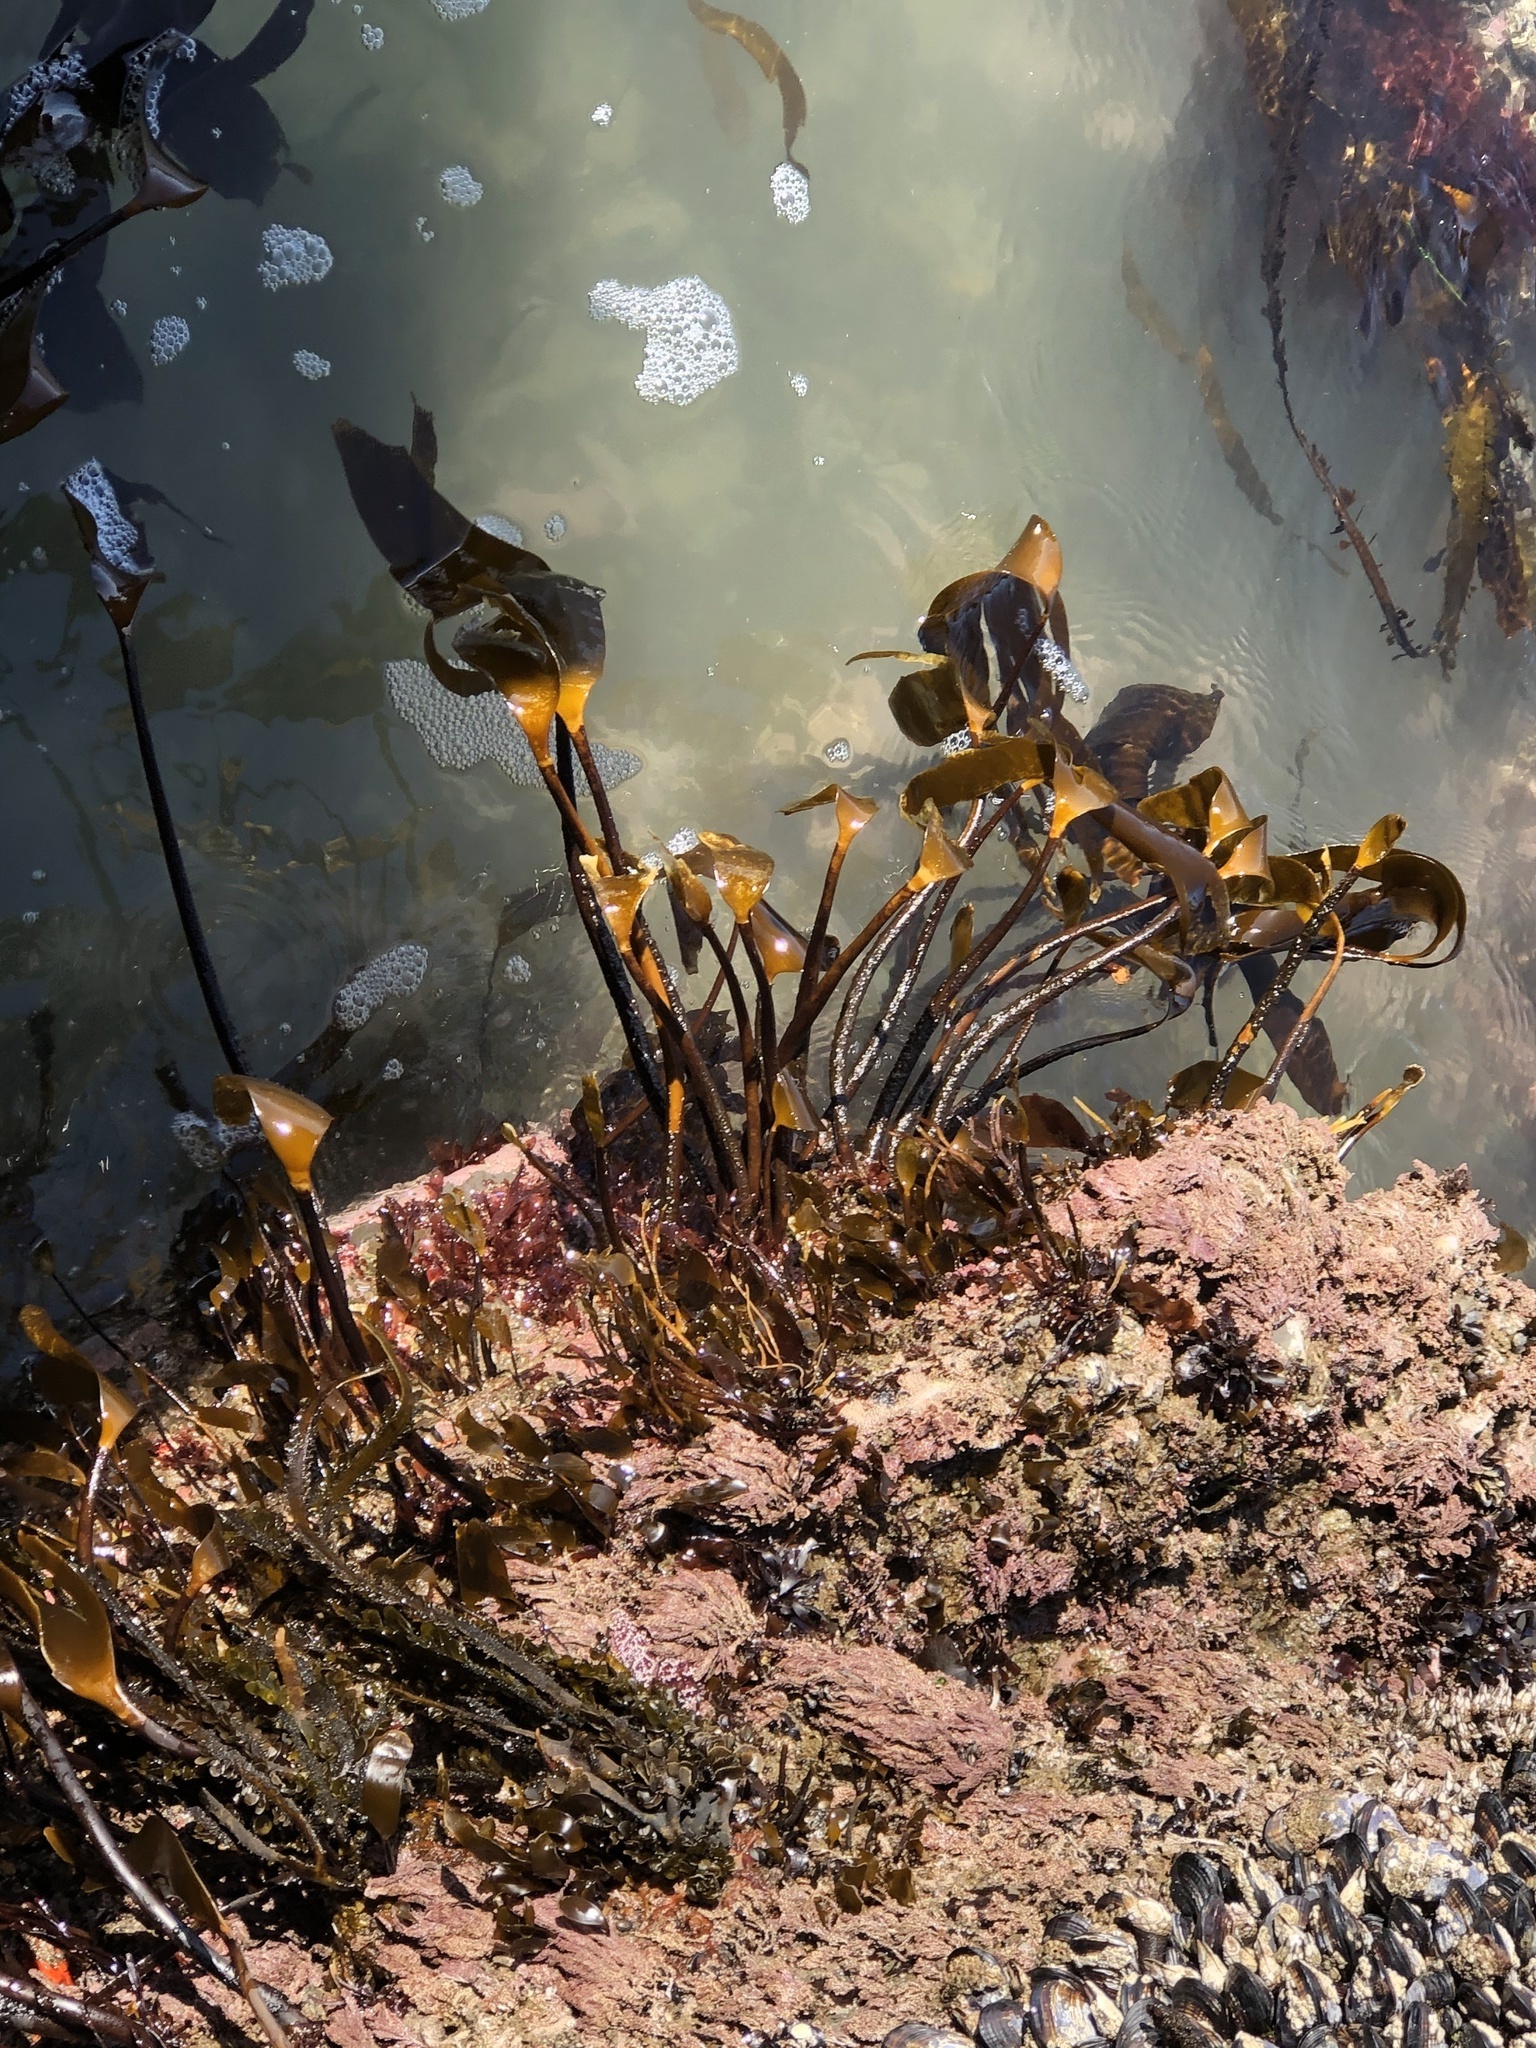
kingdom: Chromista
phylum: Ochrophyta
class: Phaeophyceae
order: Laminariales
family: Laminariaceae
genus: Laminaria
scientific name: Laminaria setchellii
